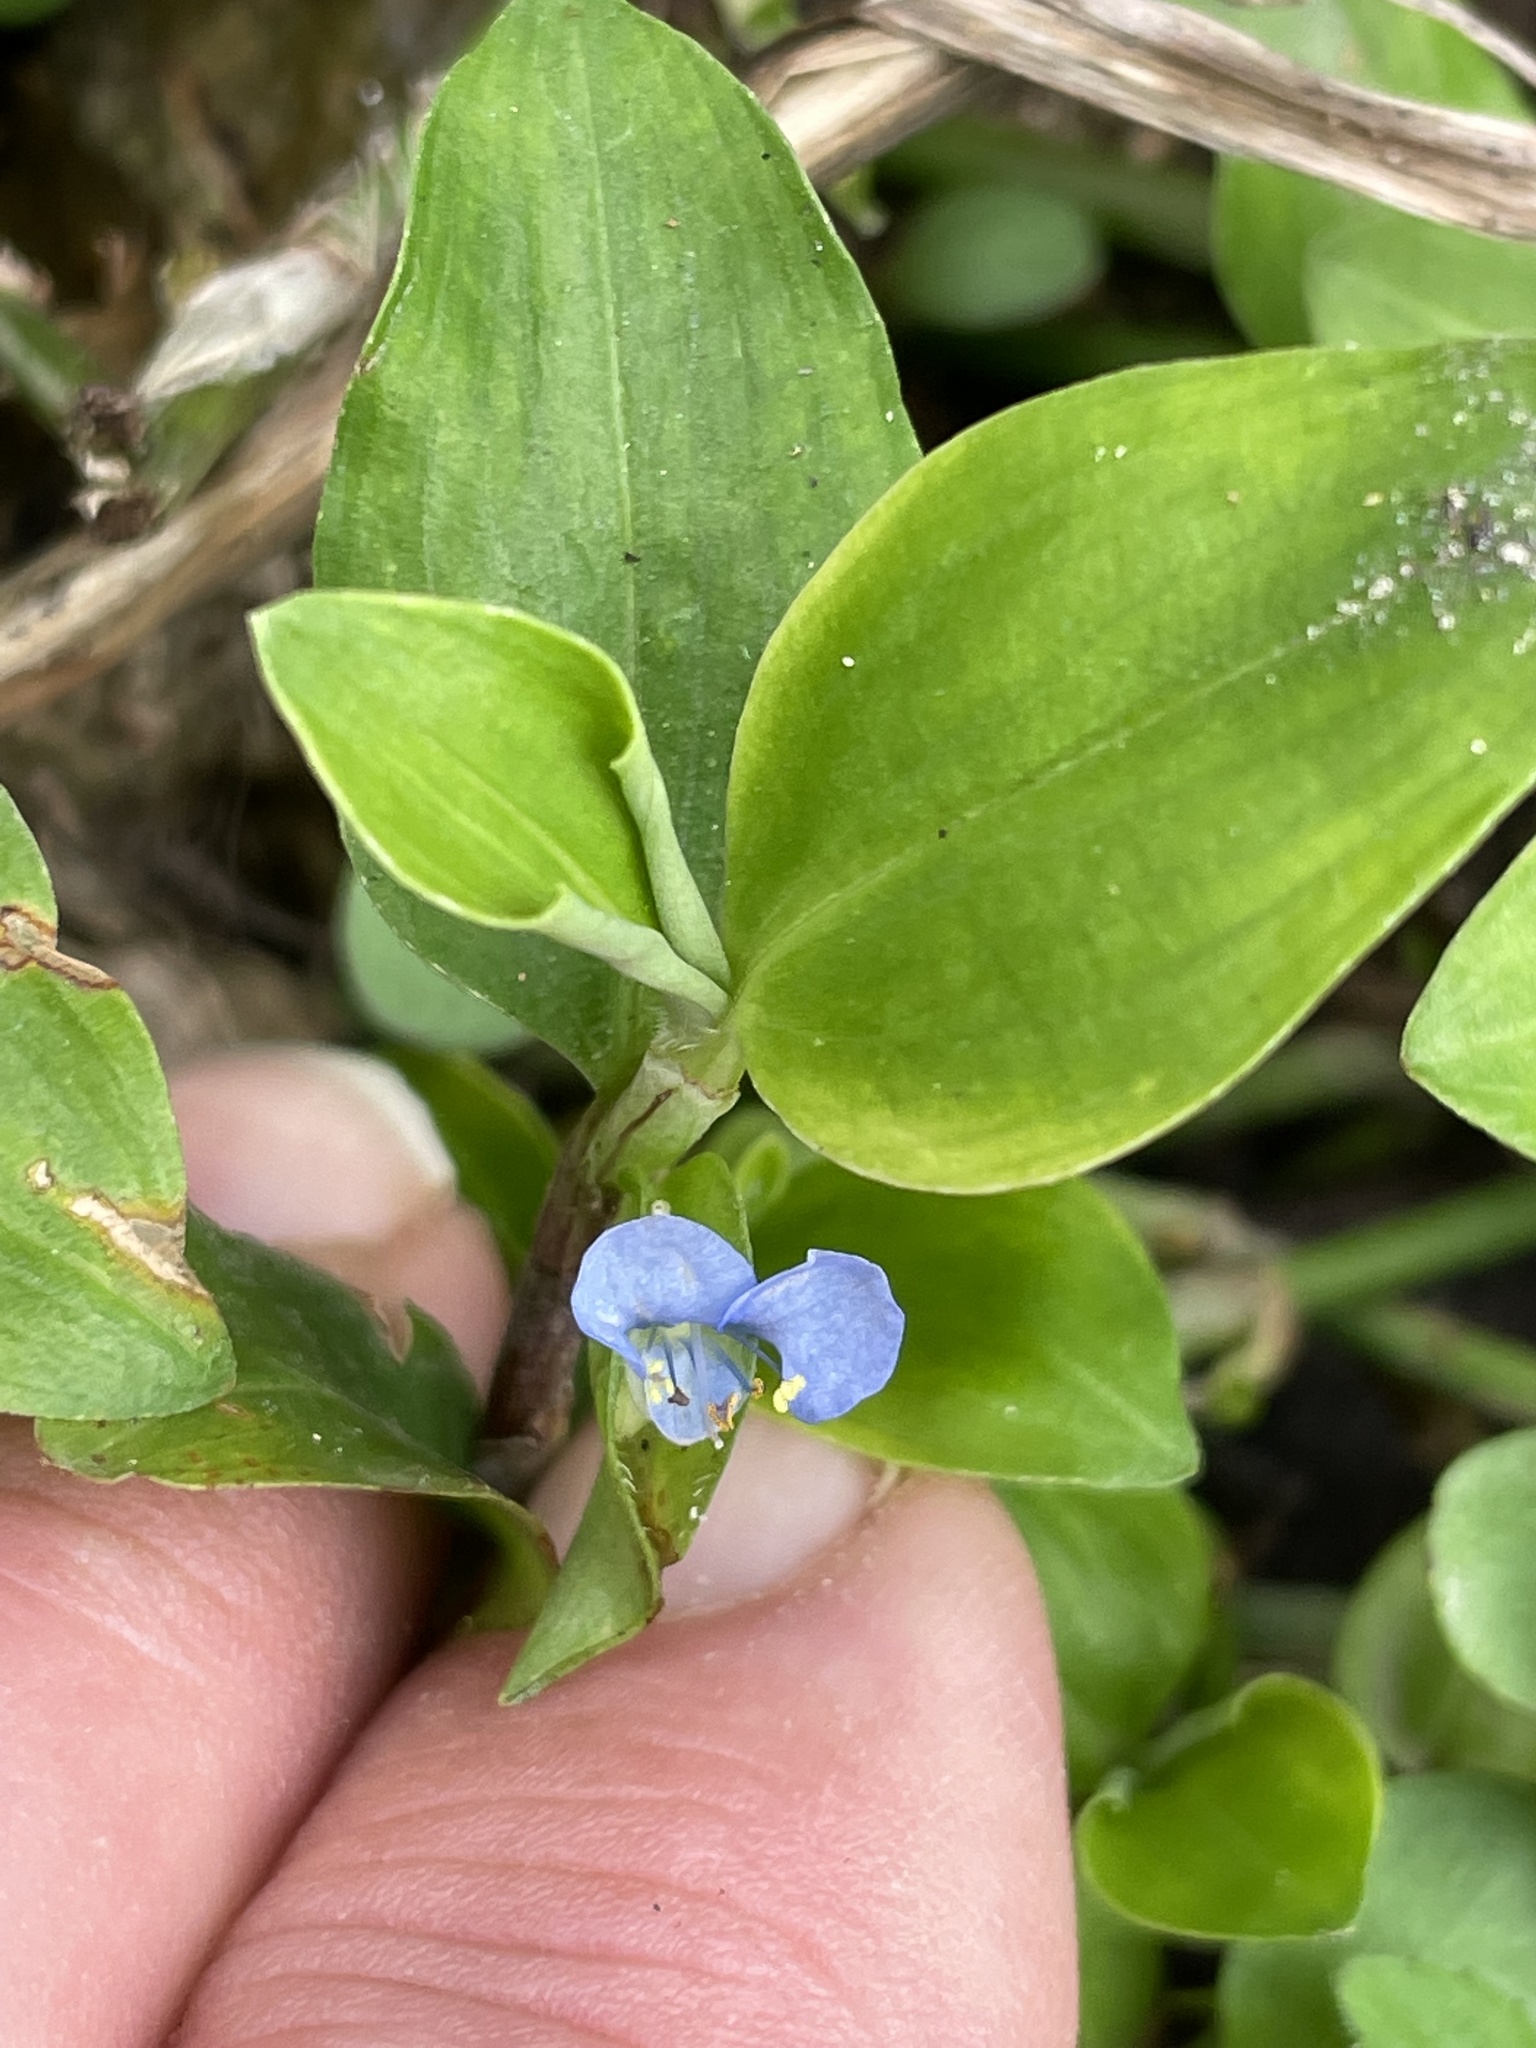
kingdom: Plantae
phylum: Tracheophyta
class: Liliopsida
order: Commelinales
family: Commelinaceae
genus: Commelina
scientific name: Commelina diffusa
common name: Climbing dayflower
